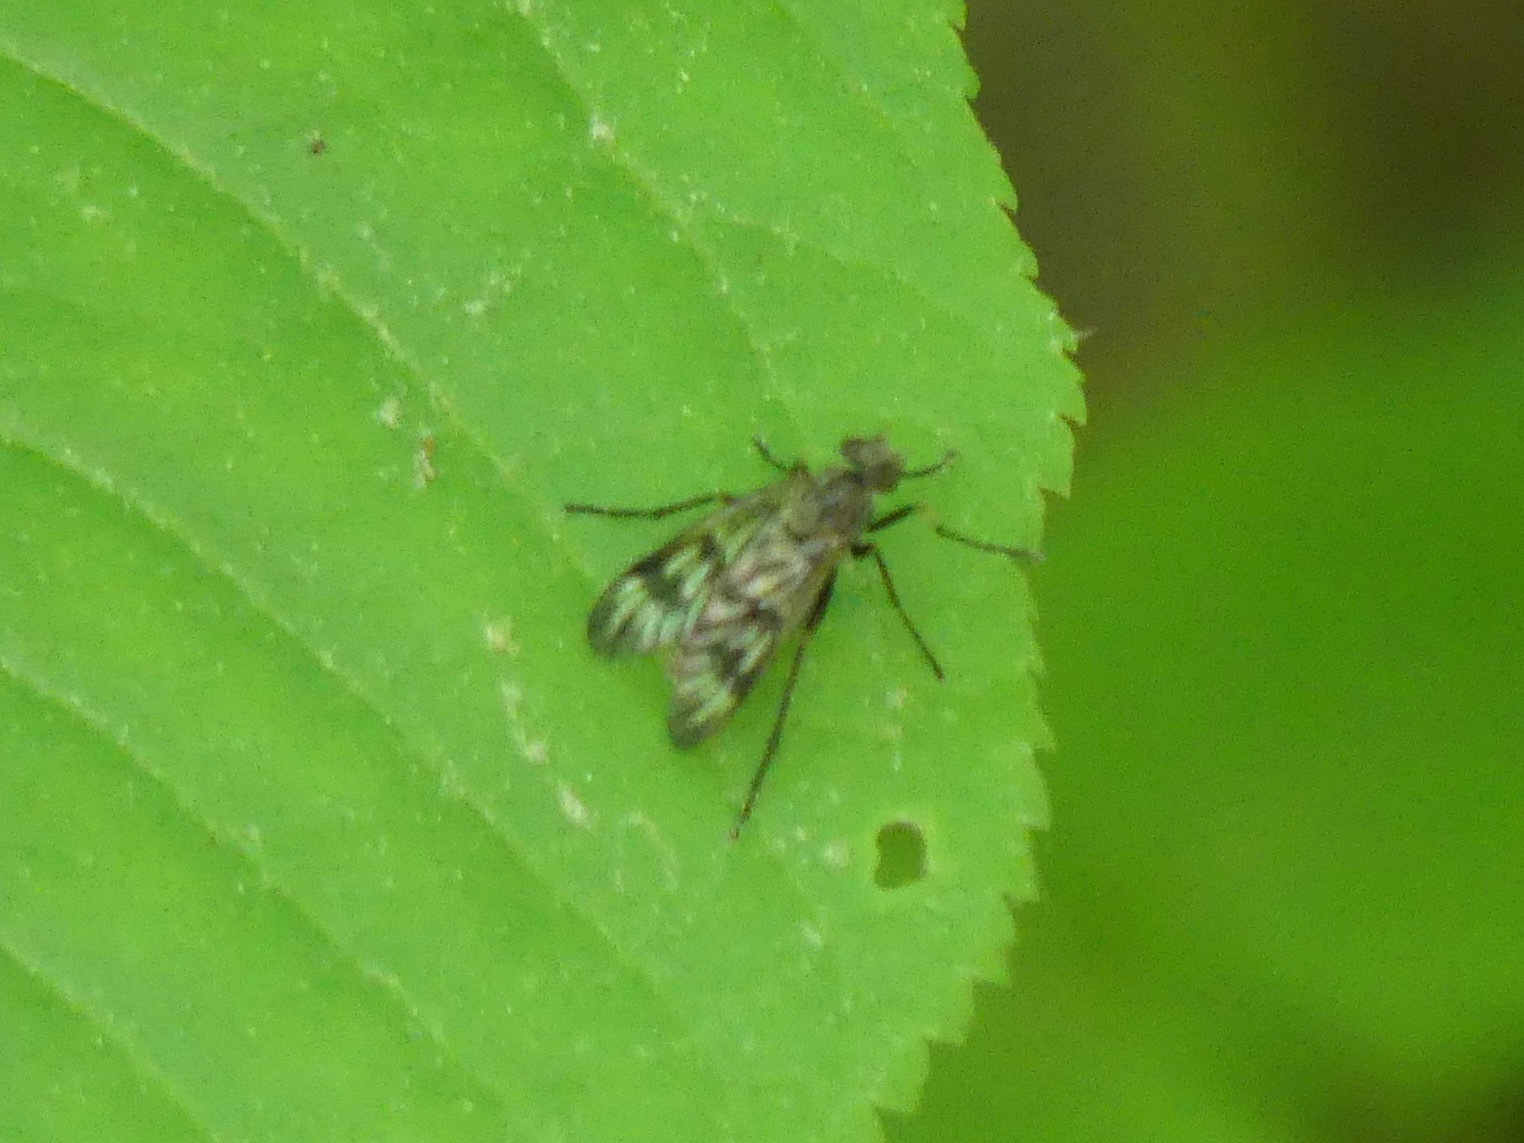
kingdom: Animalia
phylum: Arthropoda
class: Insecta
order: Diptera
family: Rhagionidae
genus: Rhagio
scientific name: Rhagio mystaceus
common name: Common snipe fly
